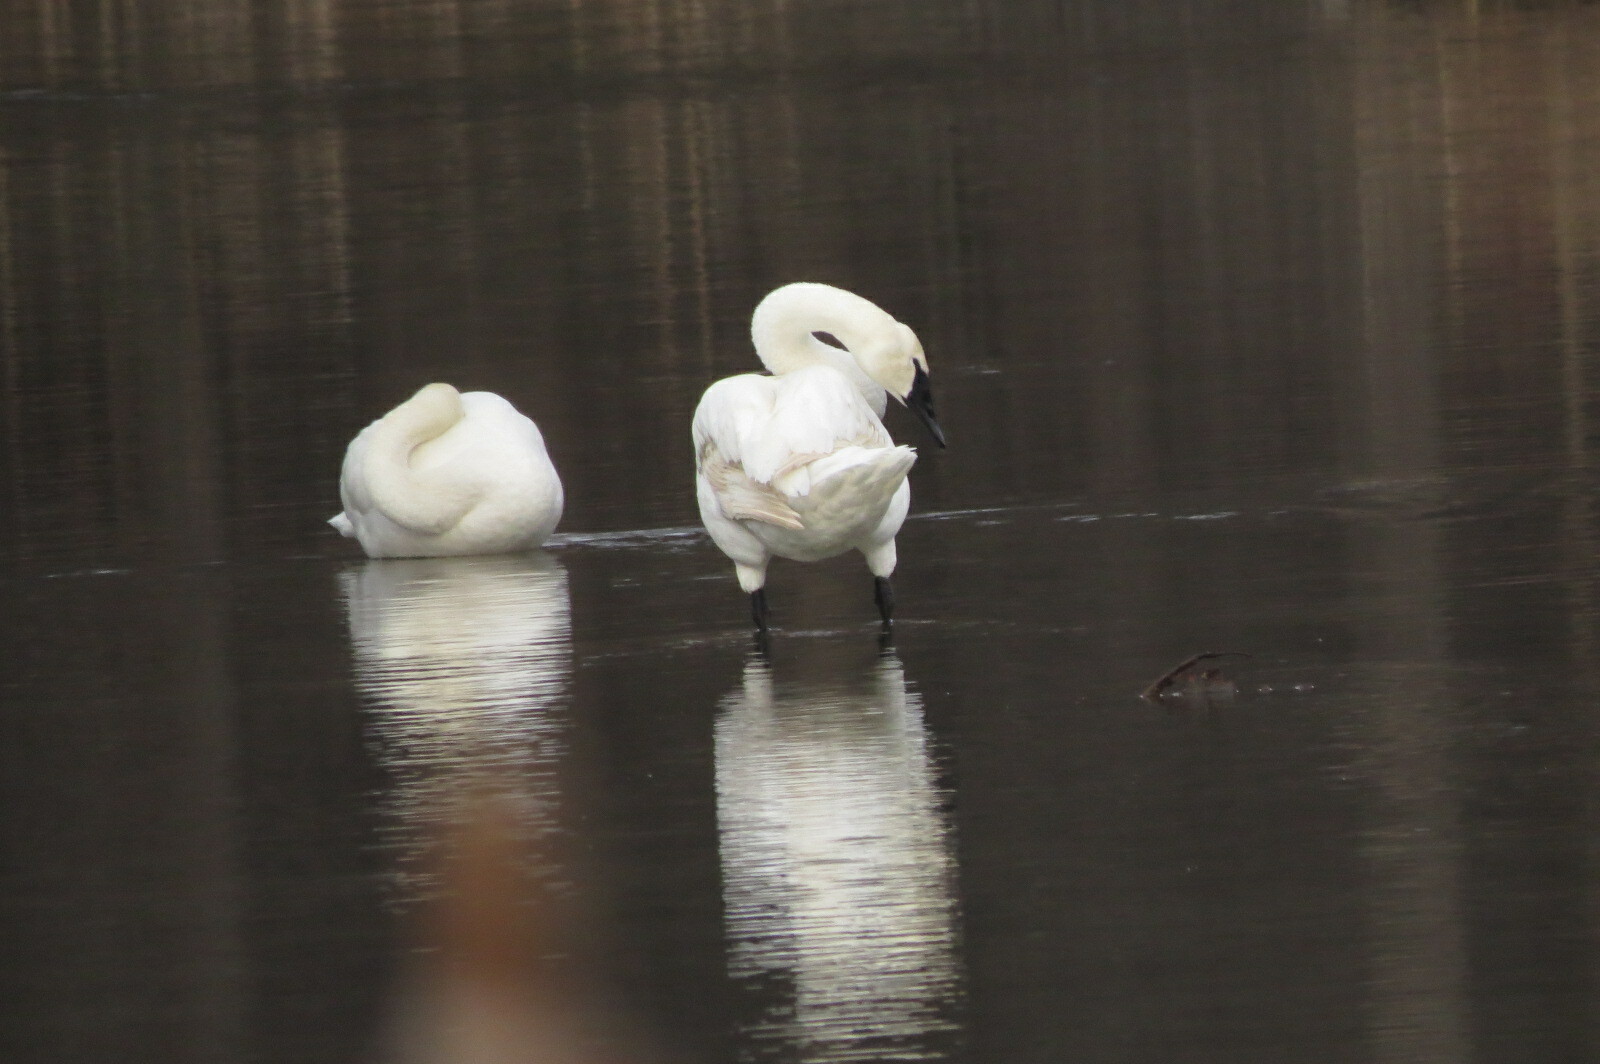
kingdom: Animalia
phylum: Chordata
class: Aves
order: Anseriformes
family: Anatidae
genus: Cygnus
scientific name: Cygnus buccinator
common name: Trumpeter swan
